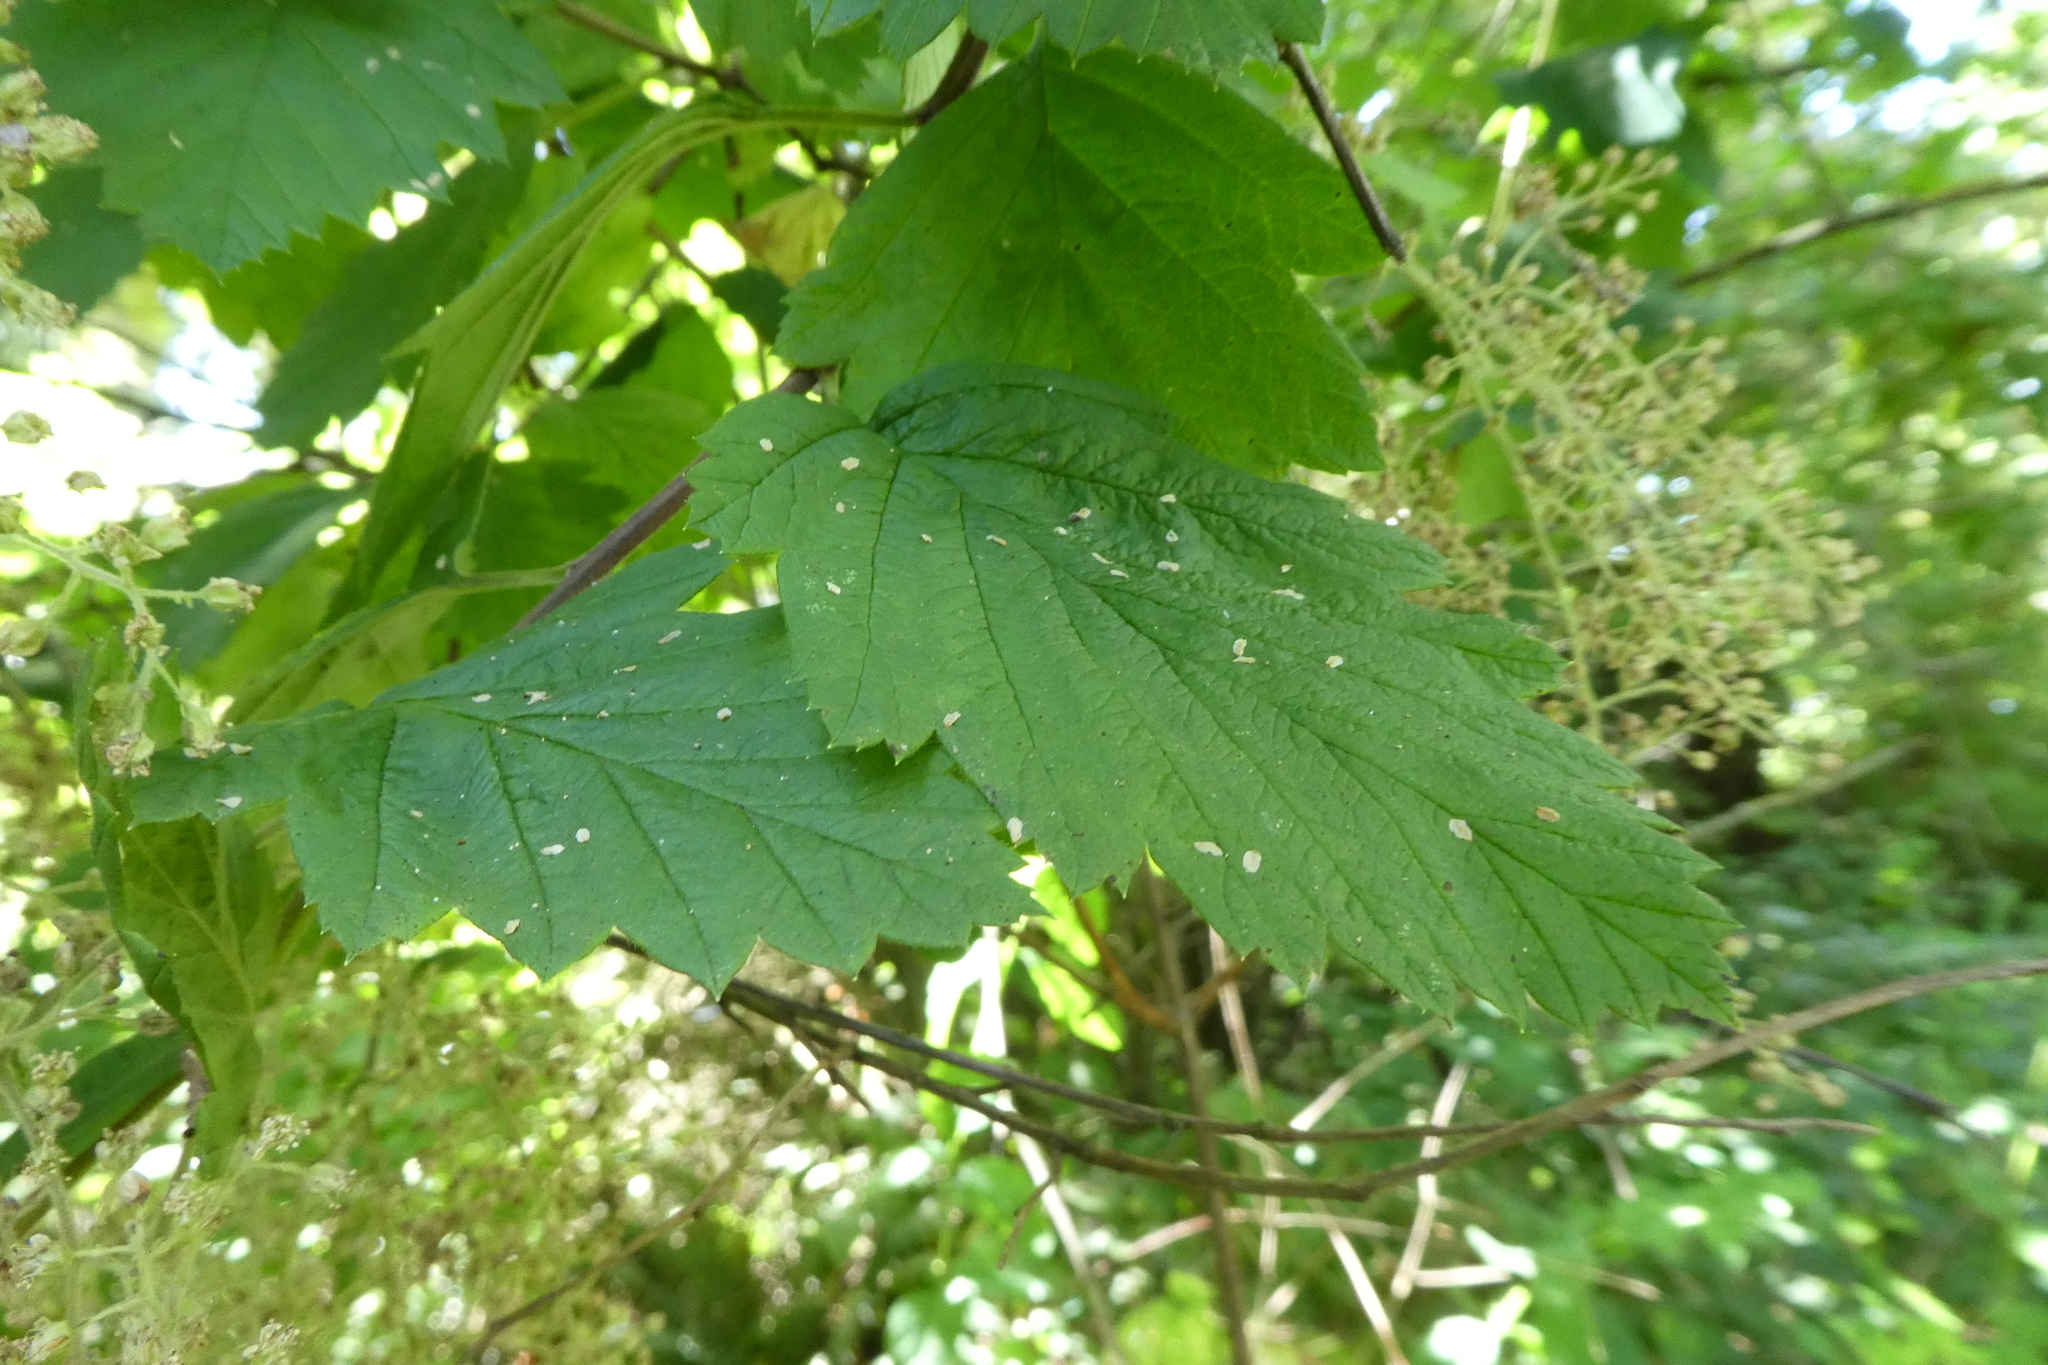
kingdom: Plantae
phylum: Tracheophyta
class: Magnoliopsida
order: Rosales
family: Rosaceae
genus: Holodiscus
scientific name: Holodiscus discolor
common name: Oceanspray
